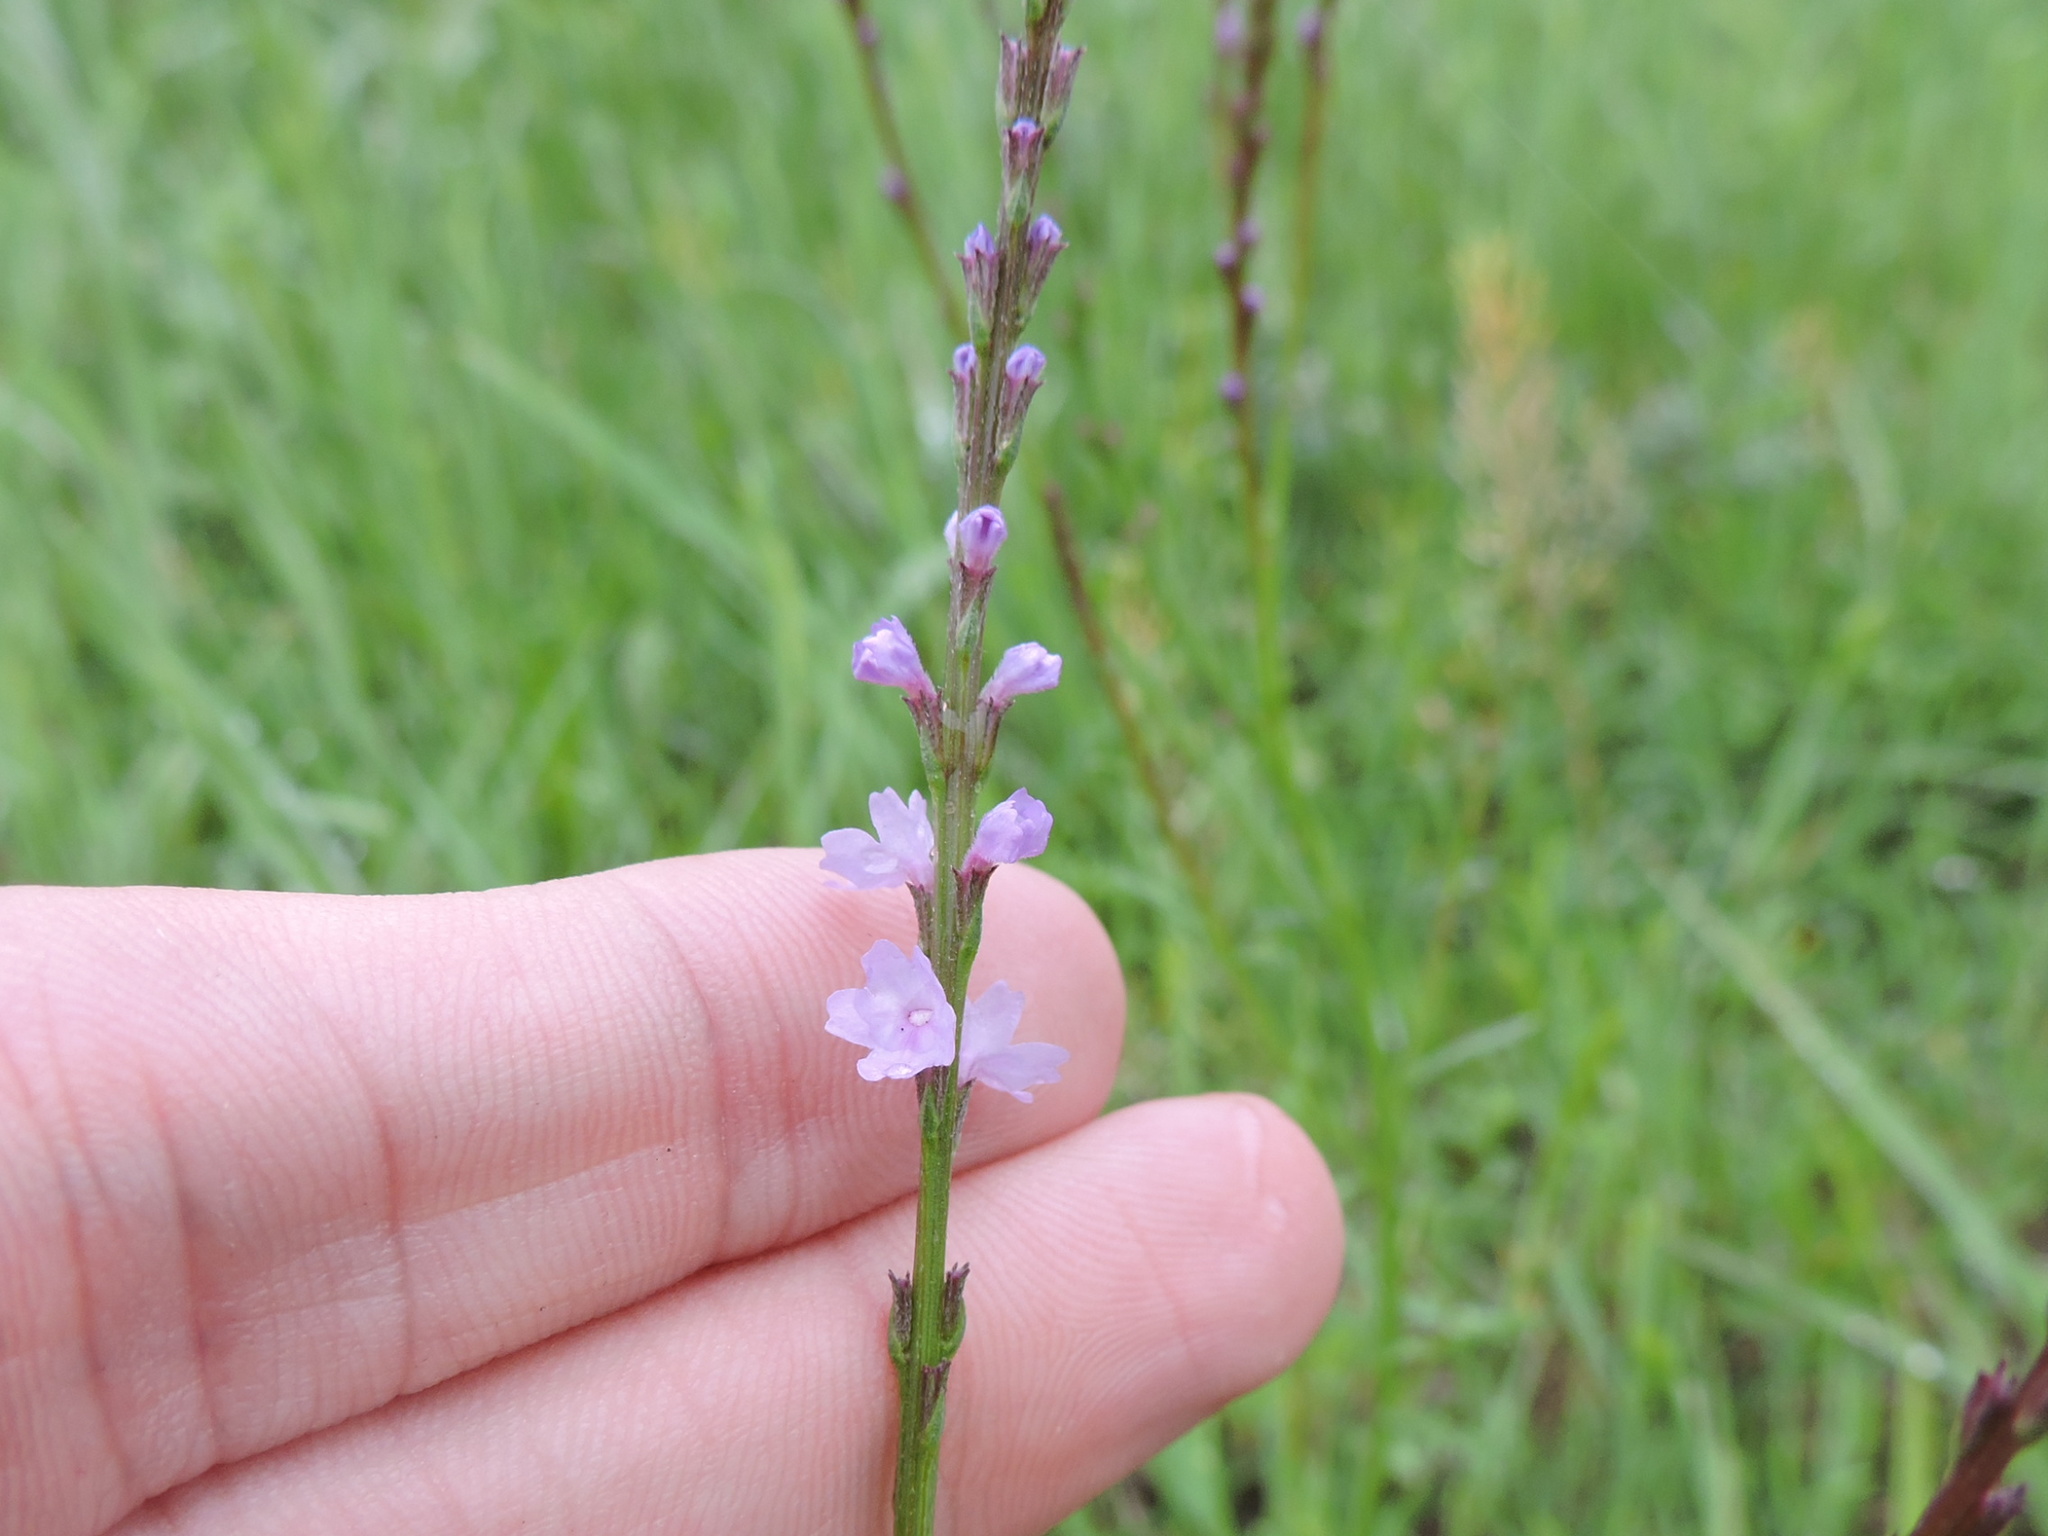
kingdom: Plantae
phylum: Tracheophyta
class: Magnoliopsida
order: Lamiales
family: Verbenaceae
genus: Verbena
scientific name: Verbena halei
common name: Texas vervain
